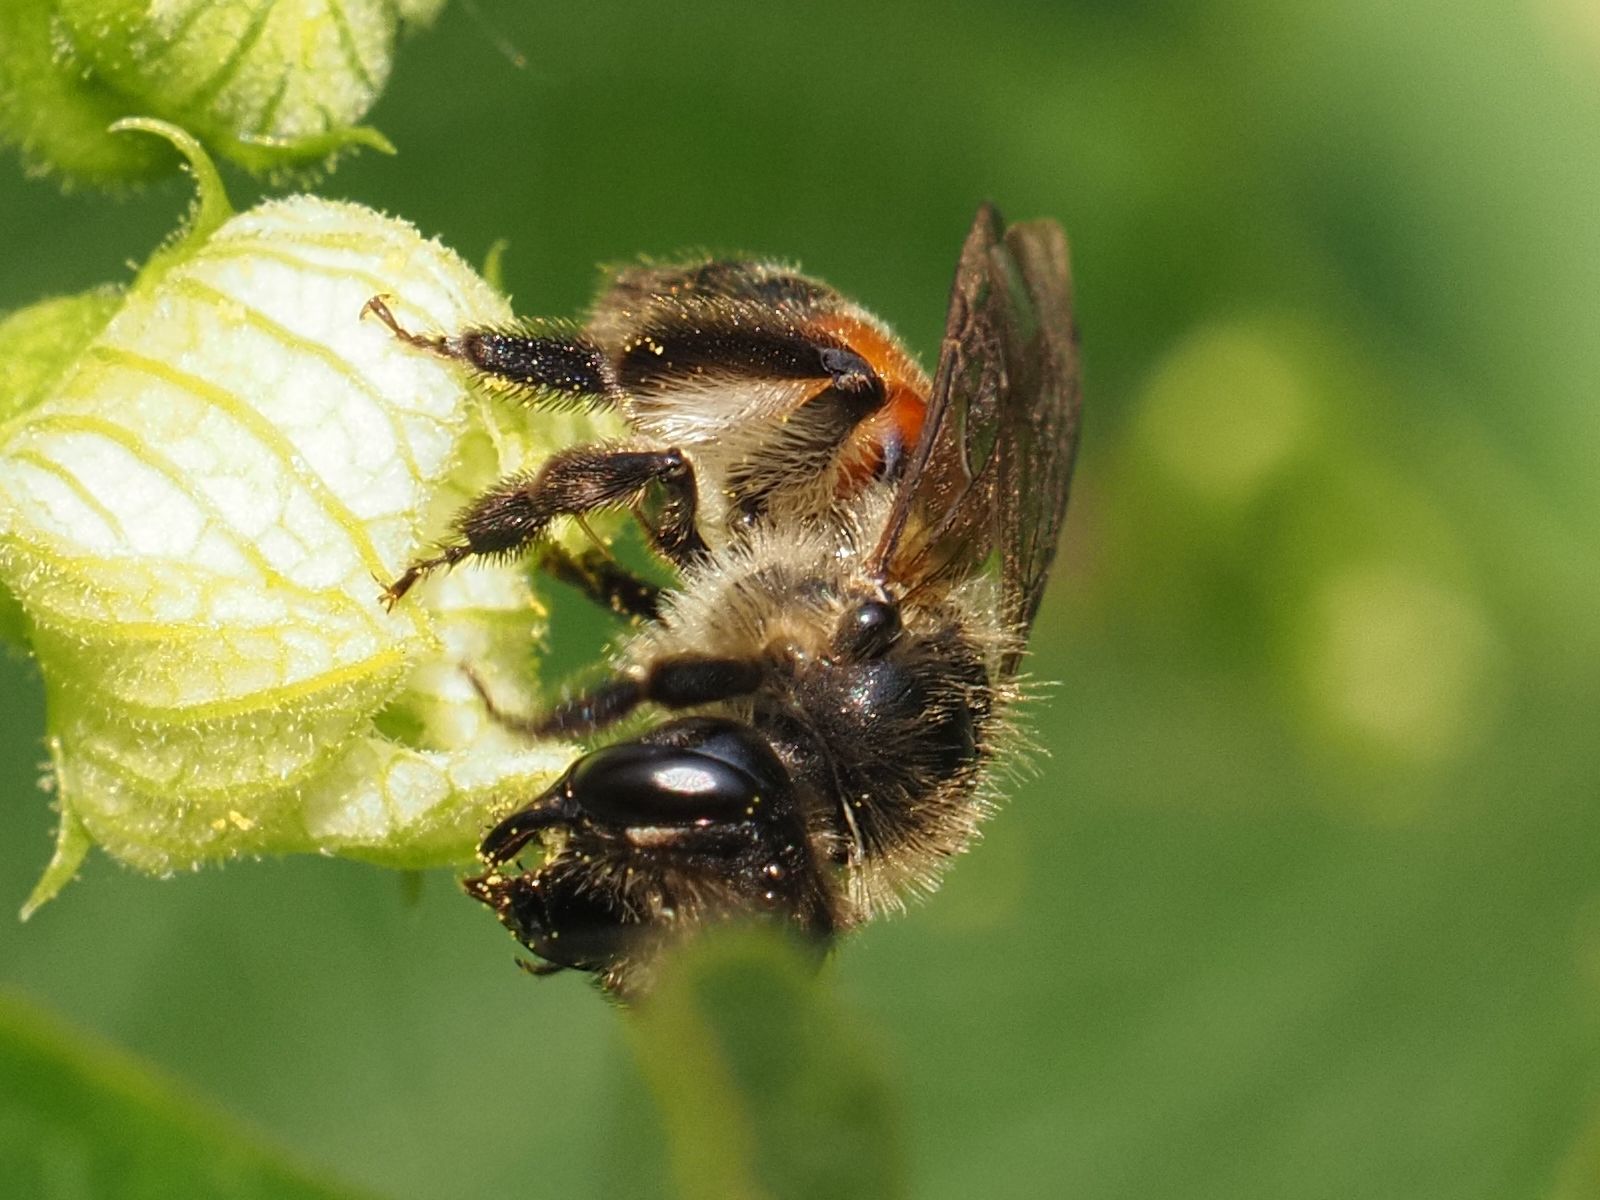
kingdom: Animalia
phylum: Arthropoda
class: Insecta
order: Hymenoptera
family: Andrenidae
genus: Andrena
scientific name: Andrena florea
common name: Bryony mining bee
